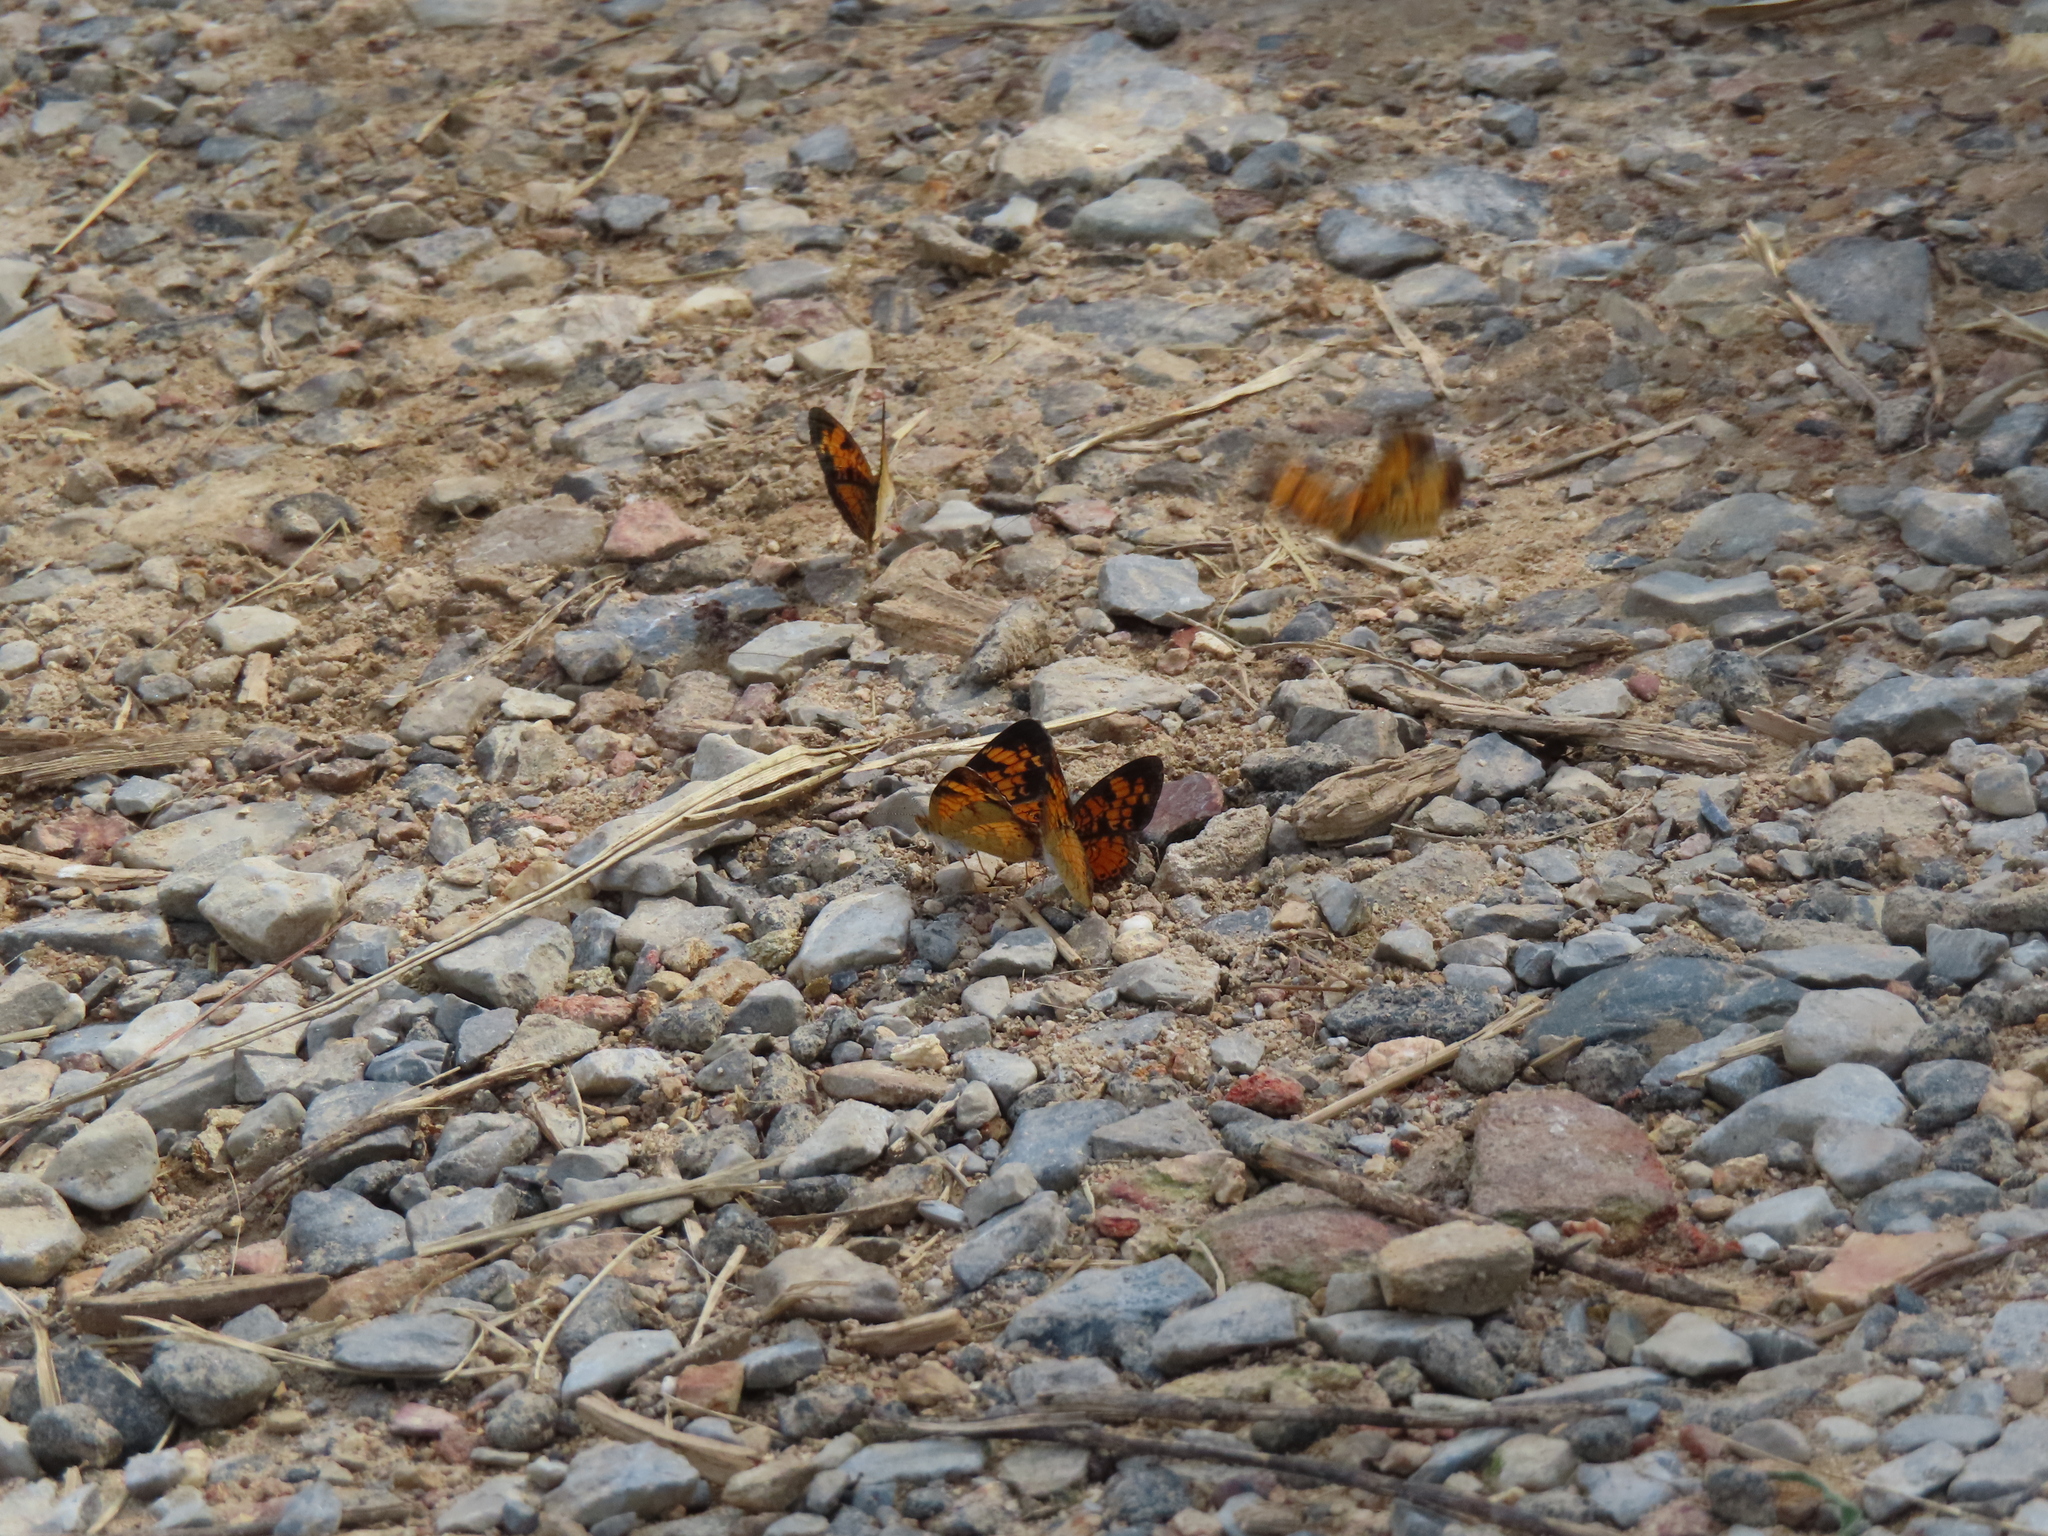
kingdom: Animalia
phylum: Arthropoda
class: Insecta
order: Lepidoptera
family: Nymphalidae
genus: Phyciodes
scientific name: Phyciodes tharos
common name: Pearl crescent
